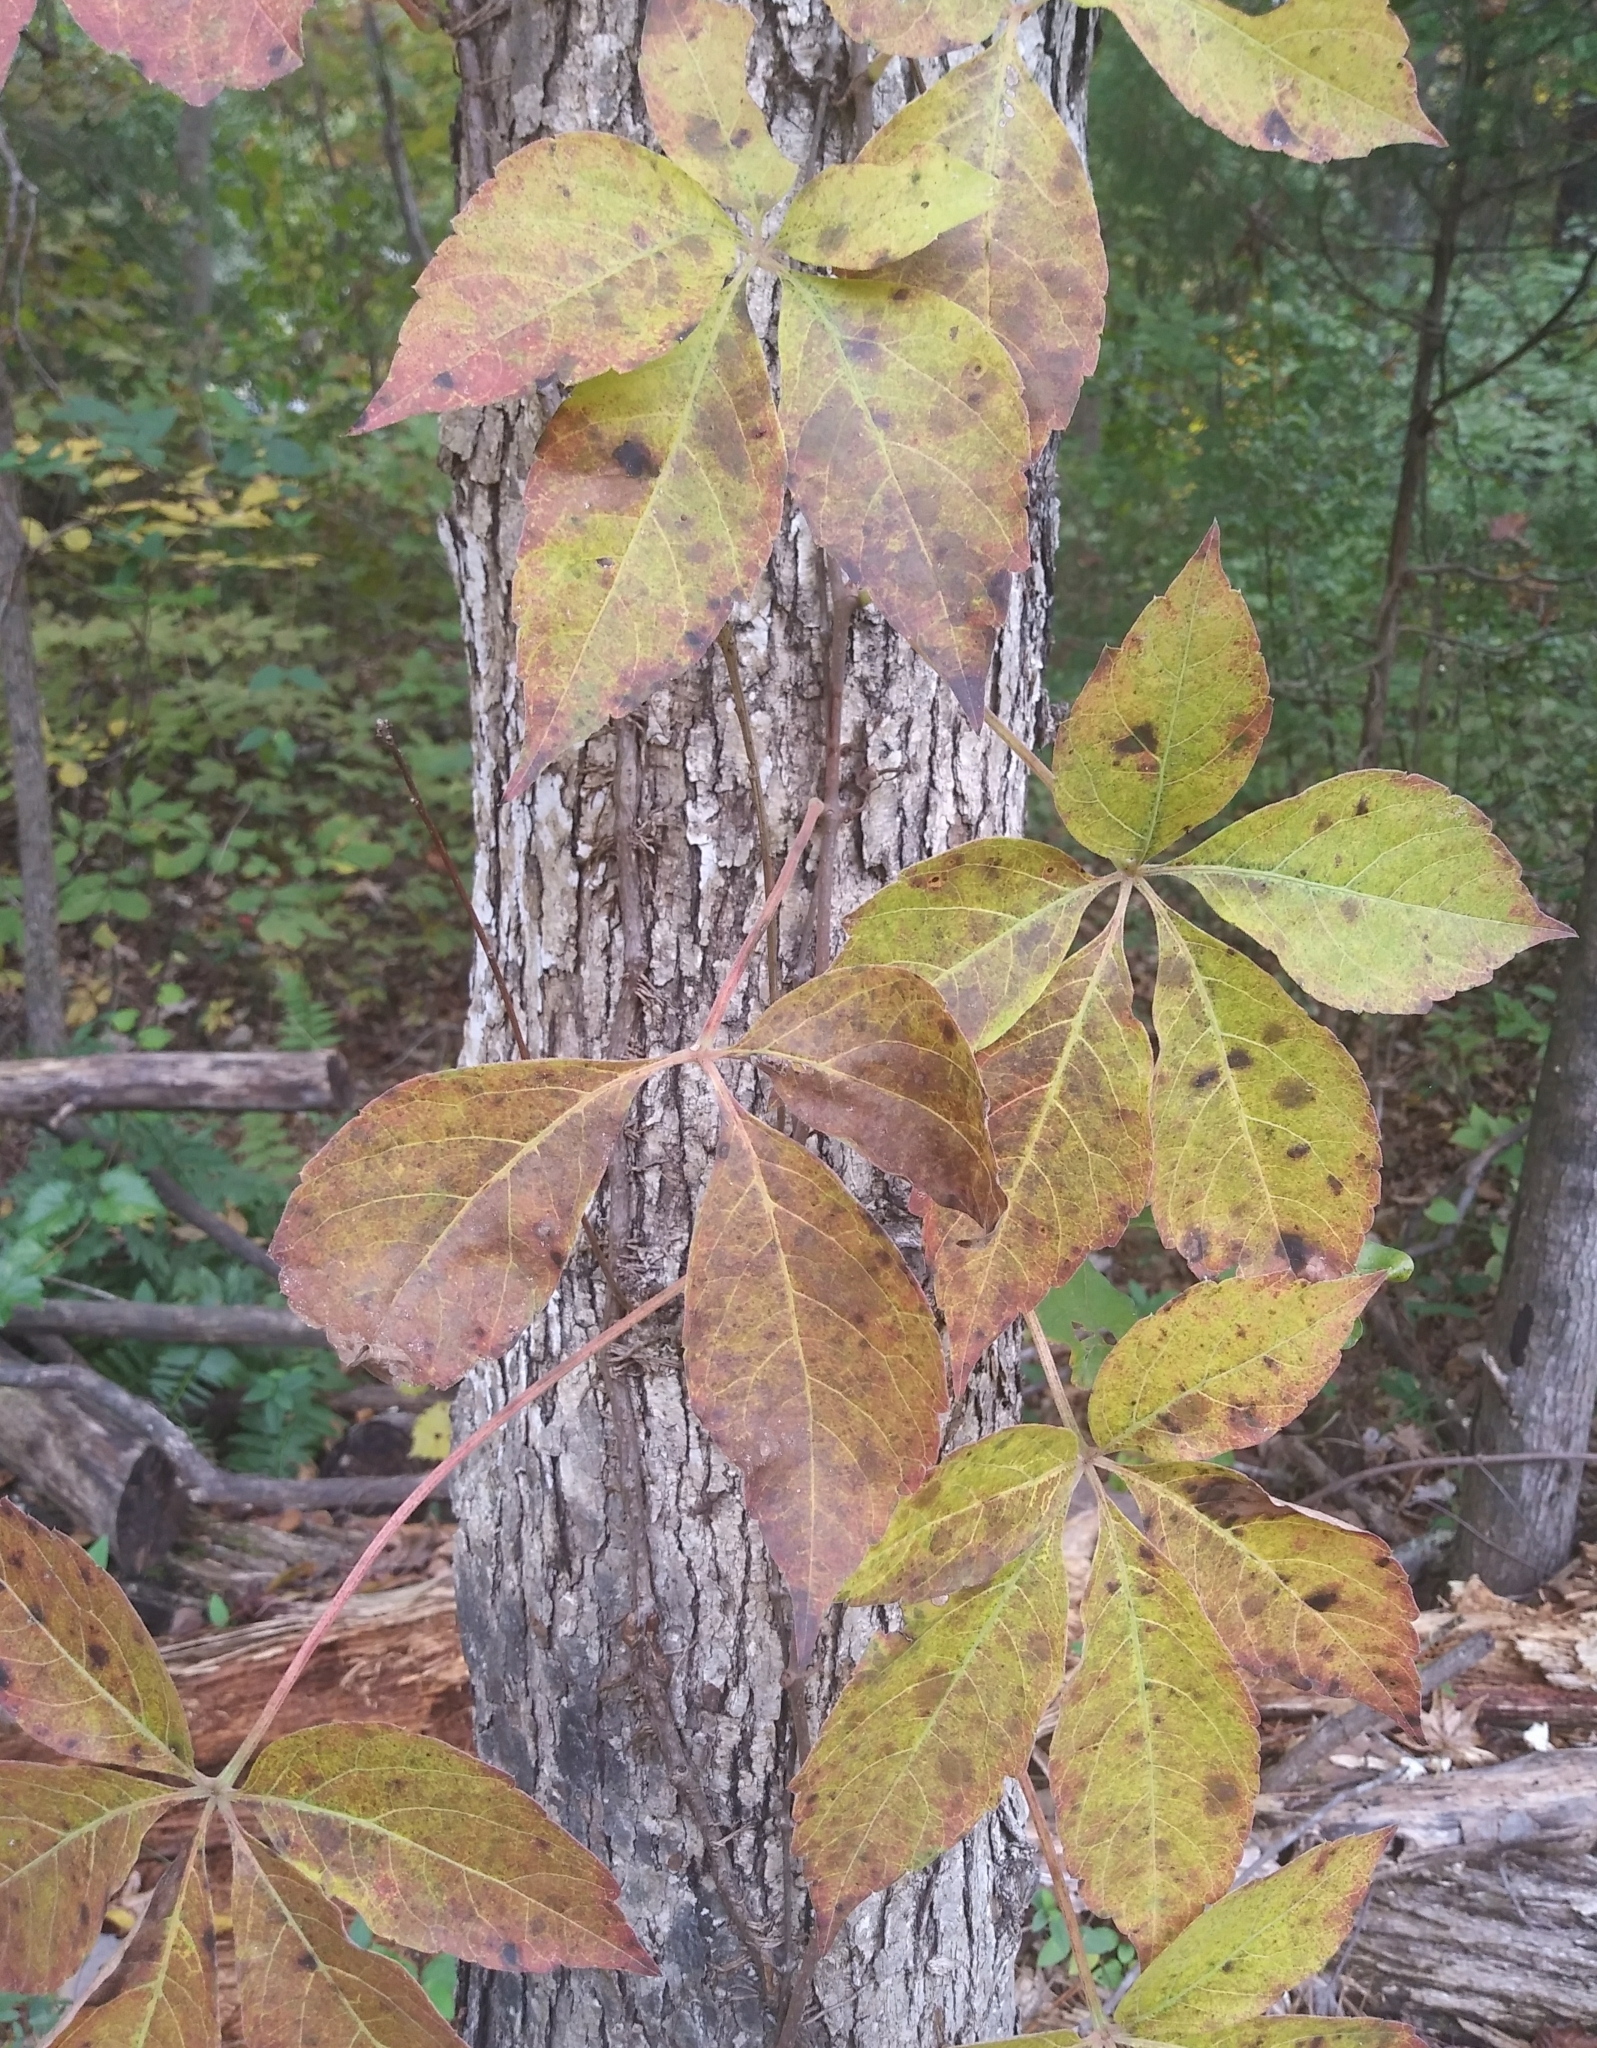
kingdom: Plantae
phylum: Tracheophyta
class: Magnoliopsida
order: Vitales
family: Vitaceae
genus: Parthenocissus
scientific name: Parthenocissus quinquefolia
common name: Virginia-creeper
